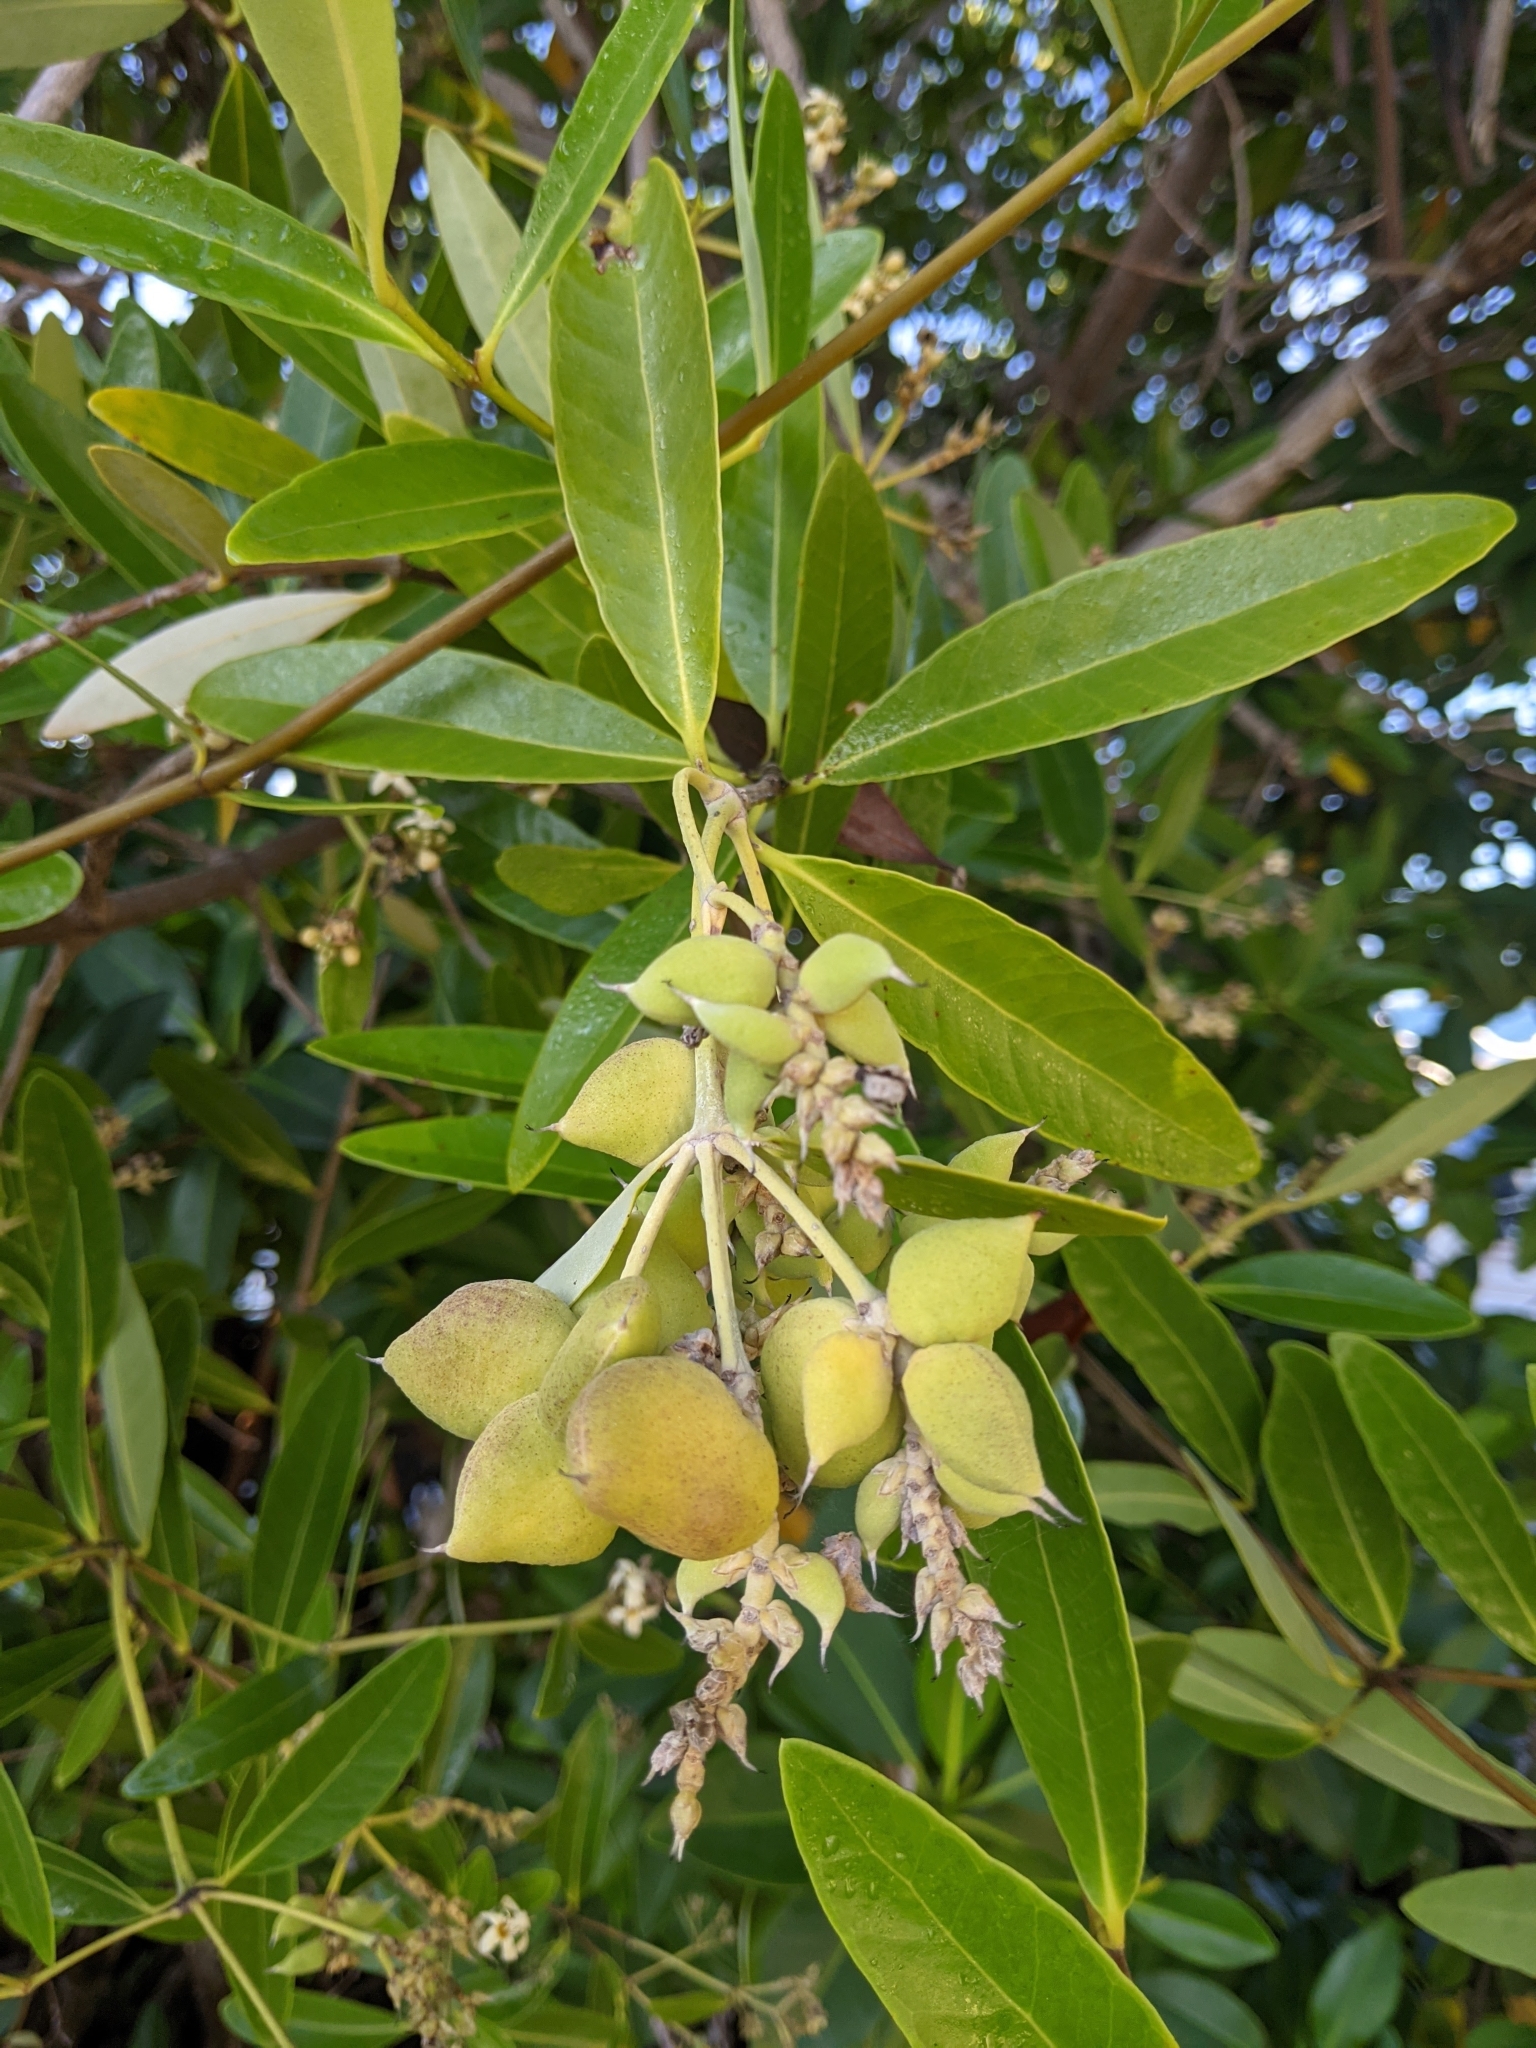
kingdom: Plantae
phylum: Tracheophyta
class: Magnoliopsida
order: Lamiales
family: Acanthaceae
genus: Avicennia
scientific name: Avicennia germinans
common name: Black mangrove
